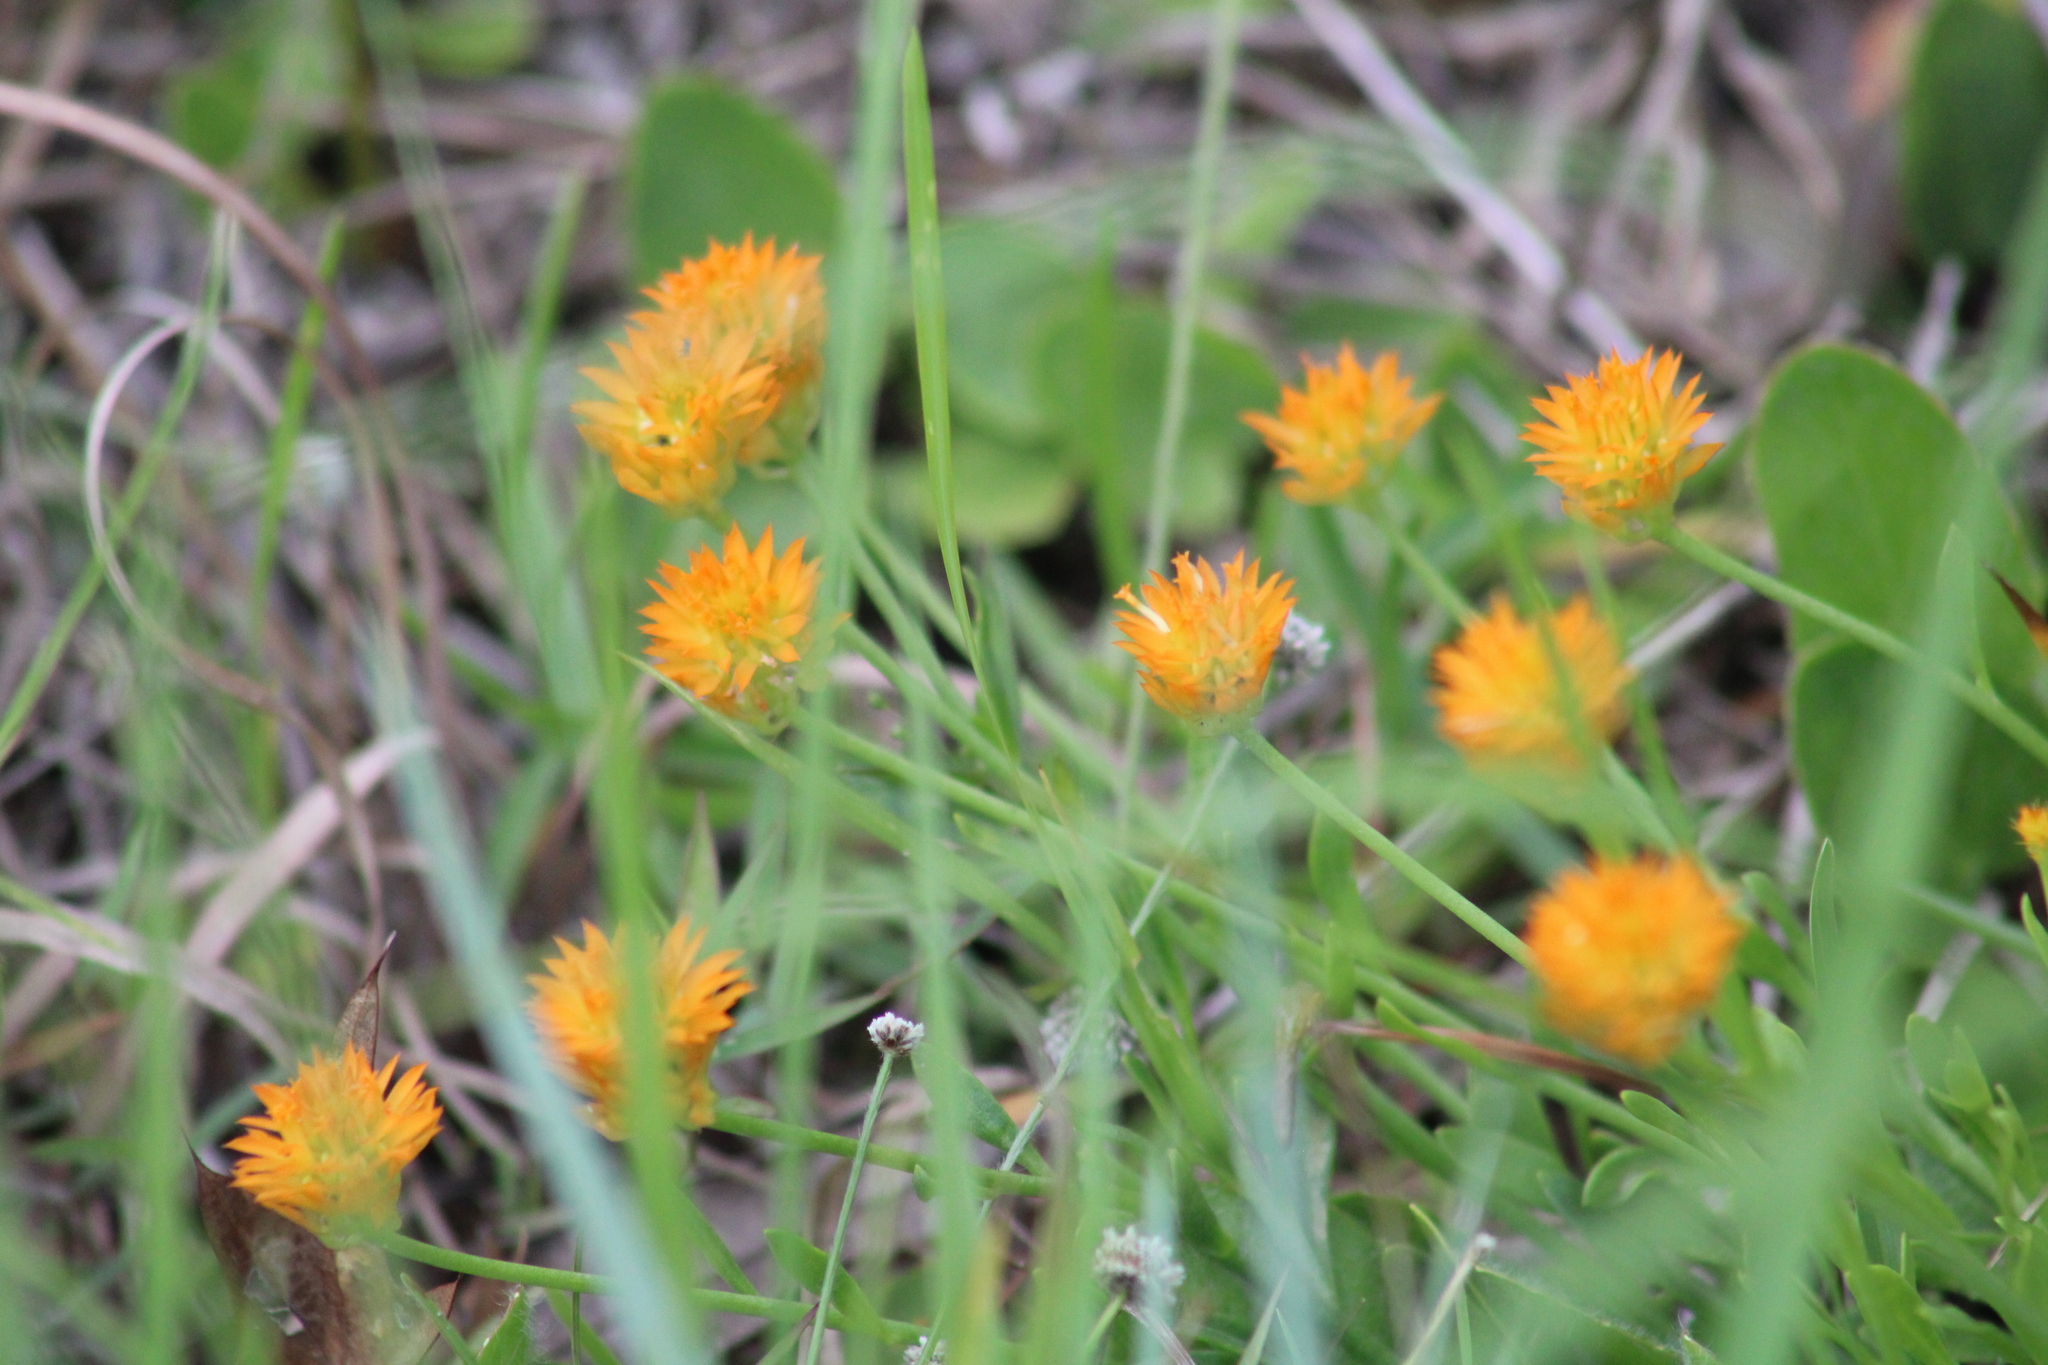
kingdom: Plantae
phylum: Tracheophyta
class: Magnoliopsida
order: Fabales
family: Polygalaceae
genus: Polygala
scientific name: Polygala lutea
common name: Orange milkwort
